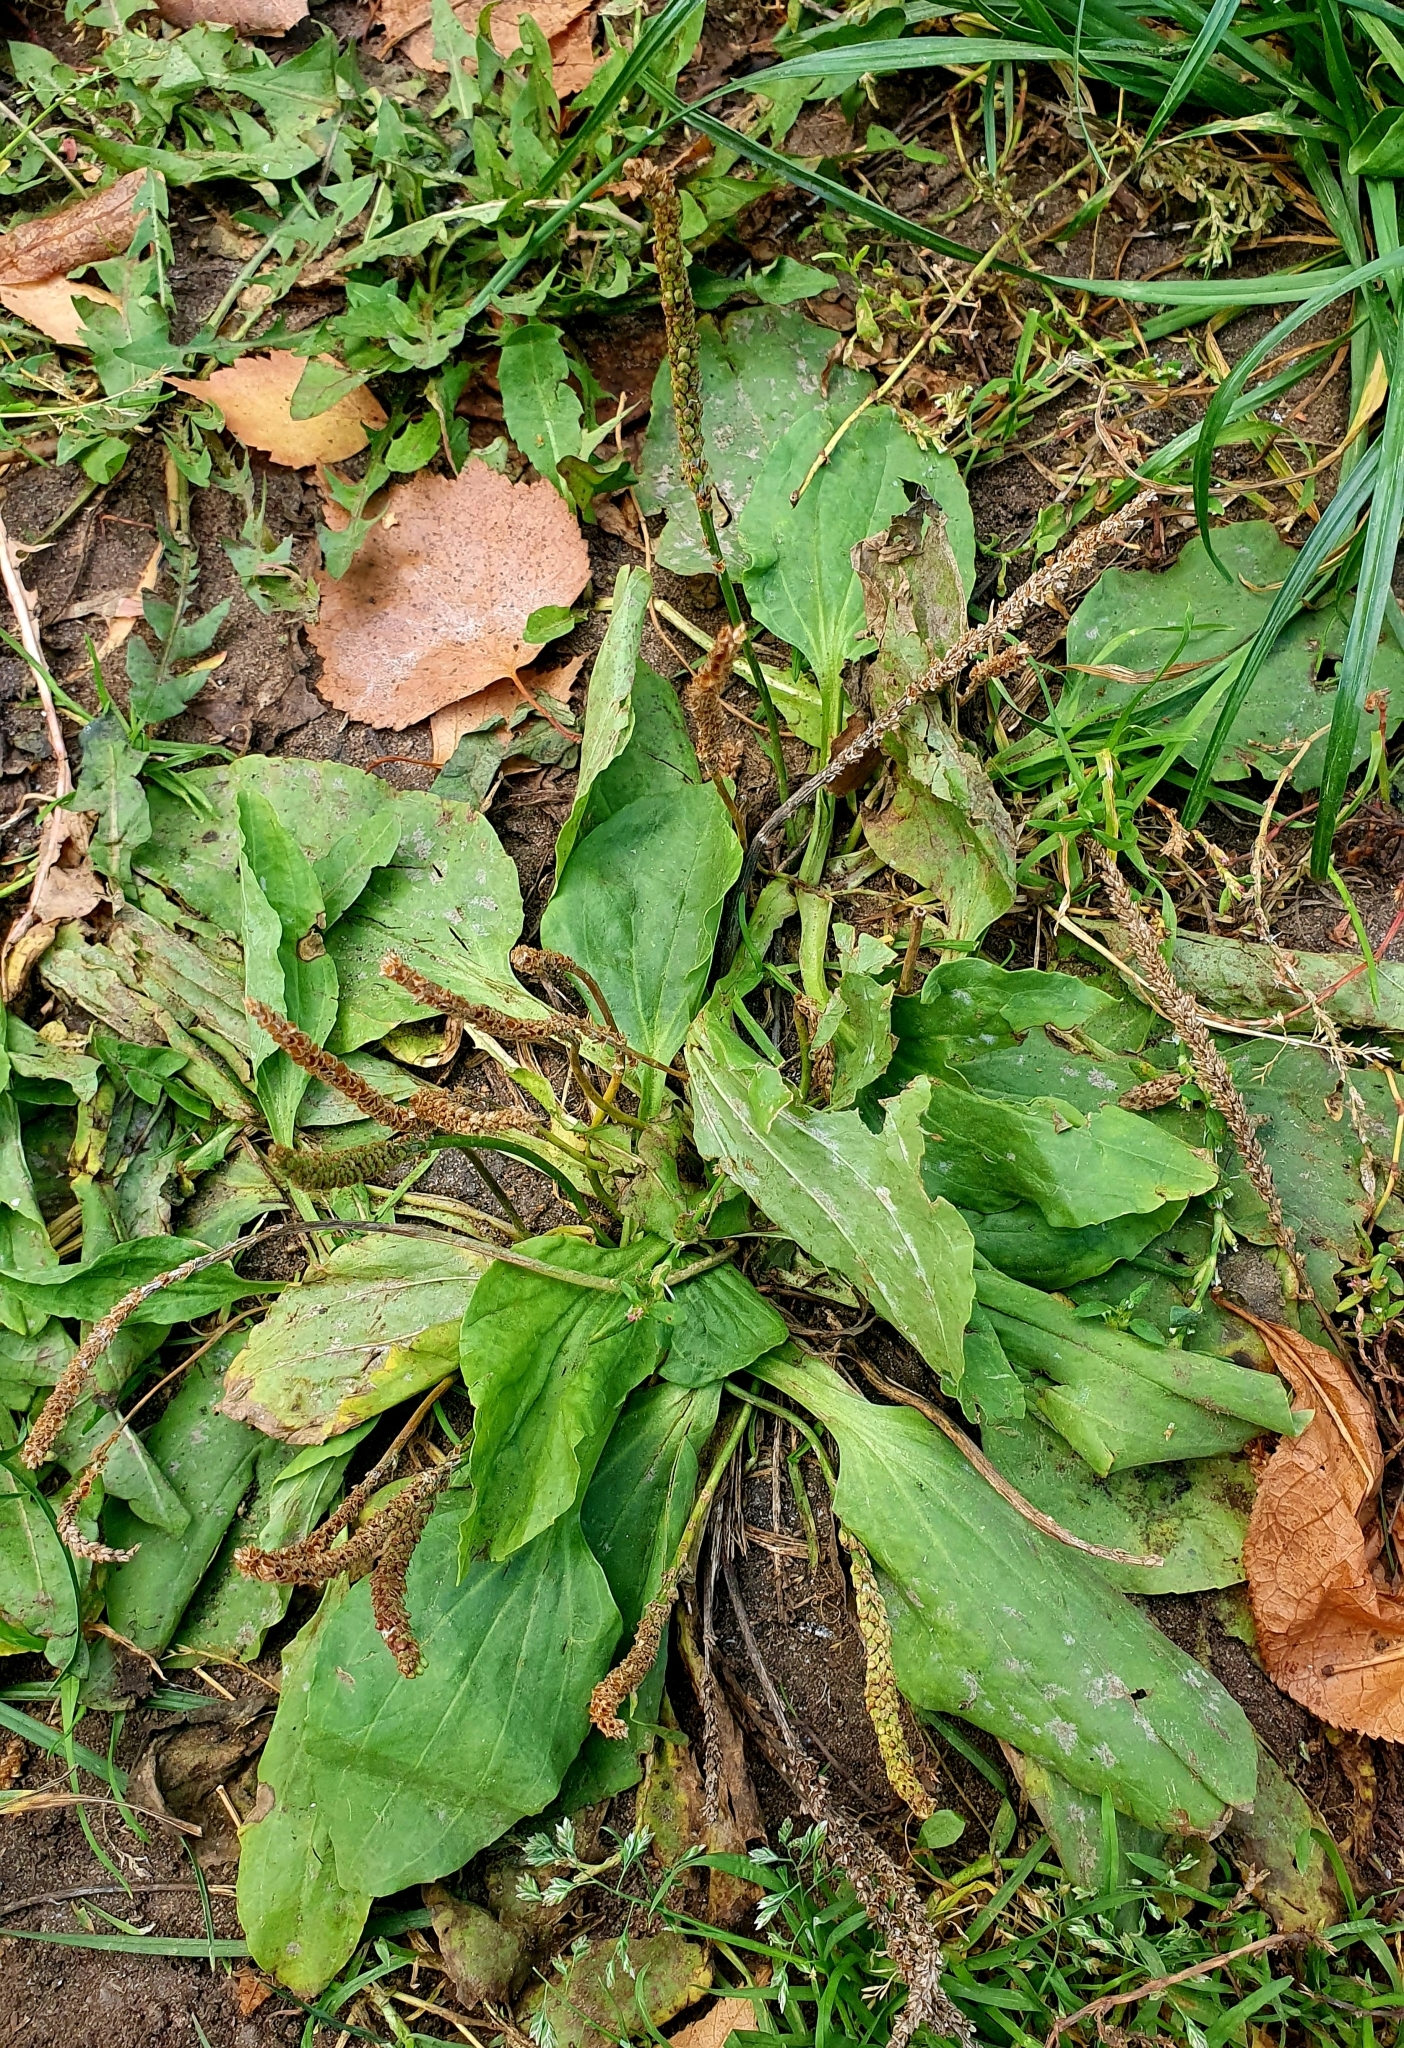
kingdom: Plantae
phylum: Tracheophyta
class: Magnoliopsida
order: Lamiales
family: Plantaginaceae
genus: Plantago
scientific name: Plantago major
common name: Common plantain
